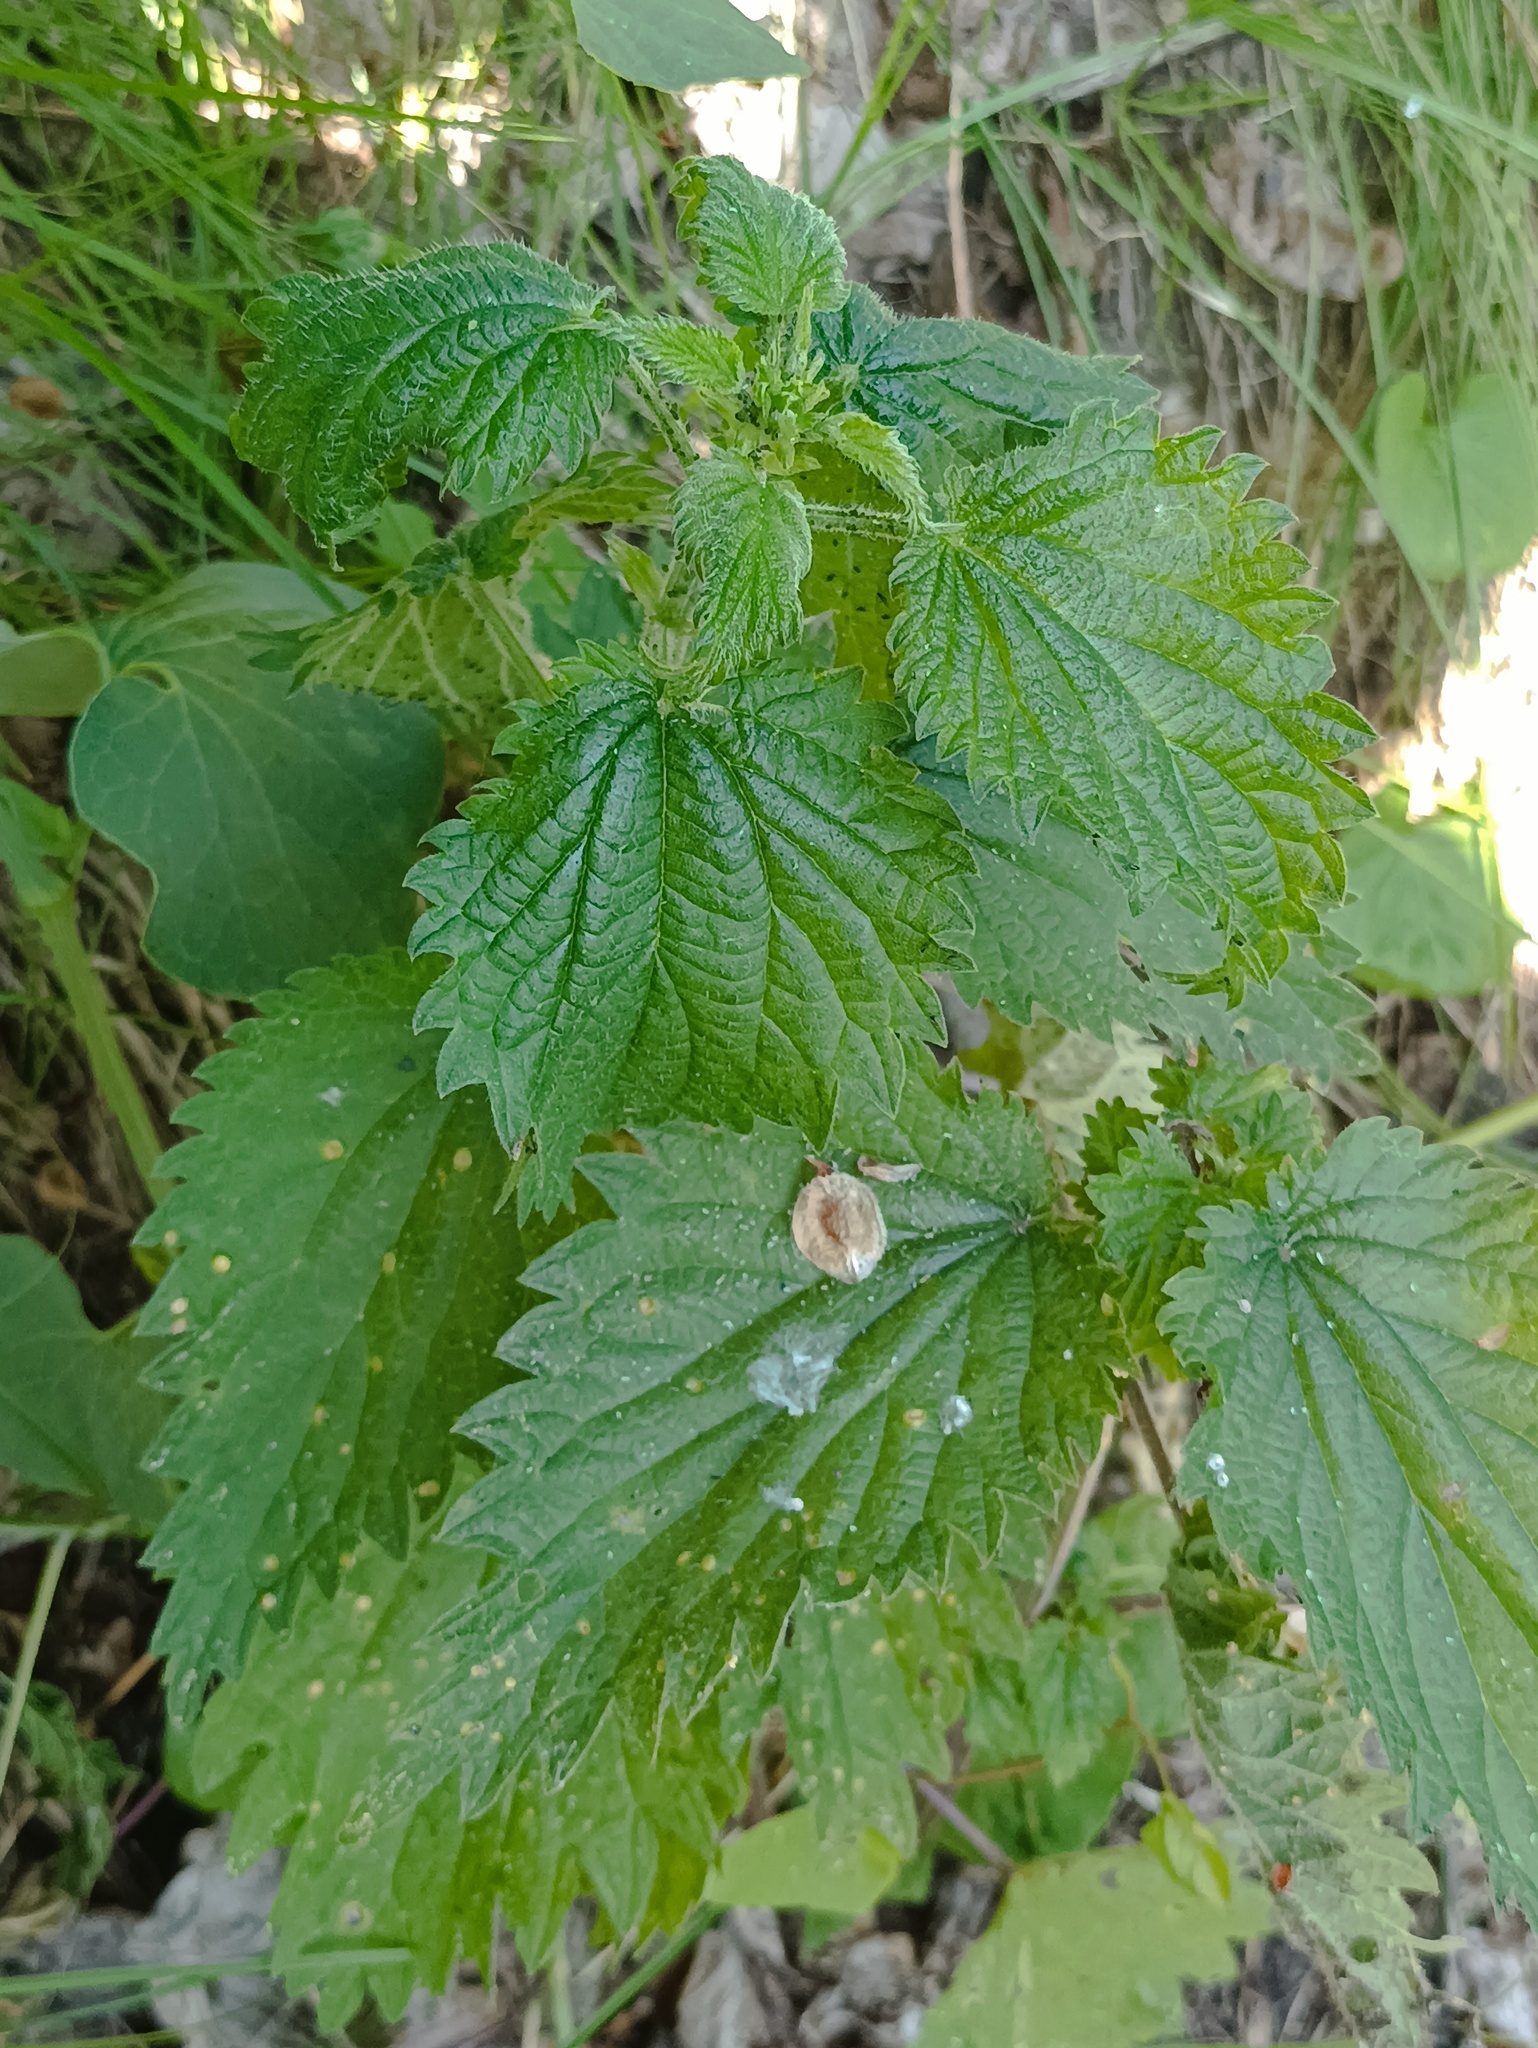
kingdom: Plantae
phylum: Tracheophyta
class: Magnoliopsida
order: Rosales
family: Urticaceae
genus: Urtica
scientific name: Urtica dioica
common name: Common nettle
